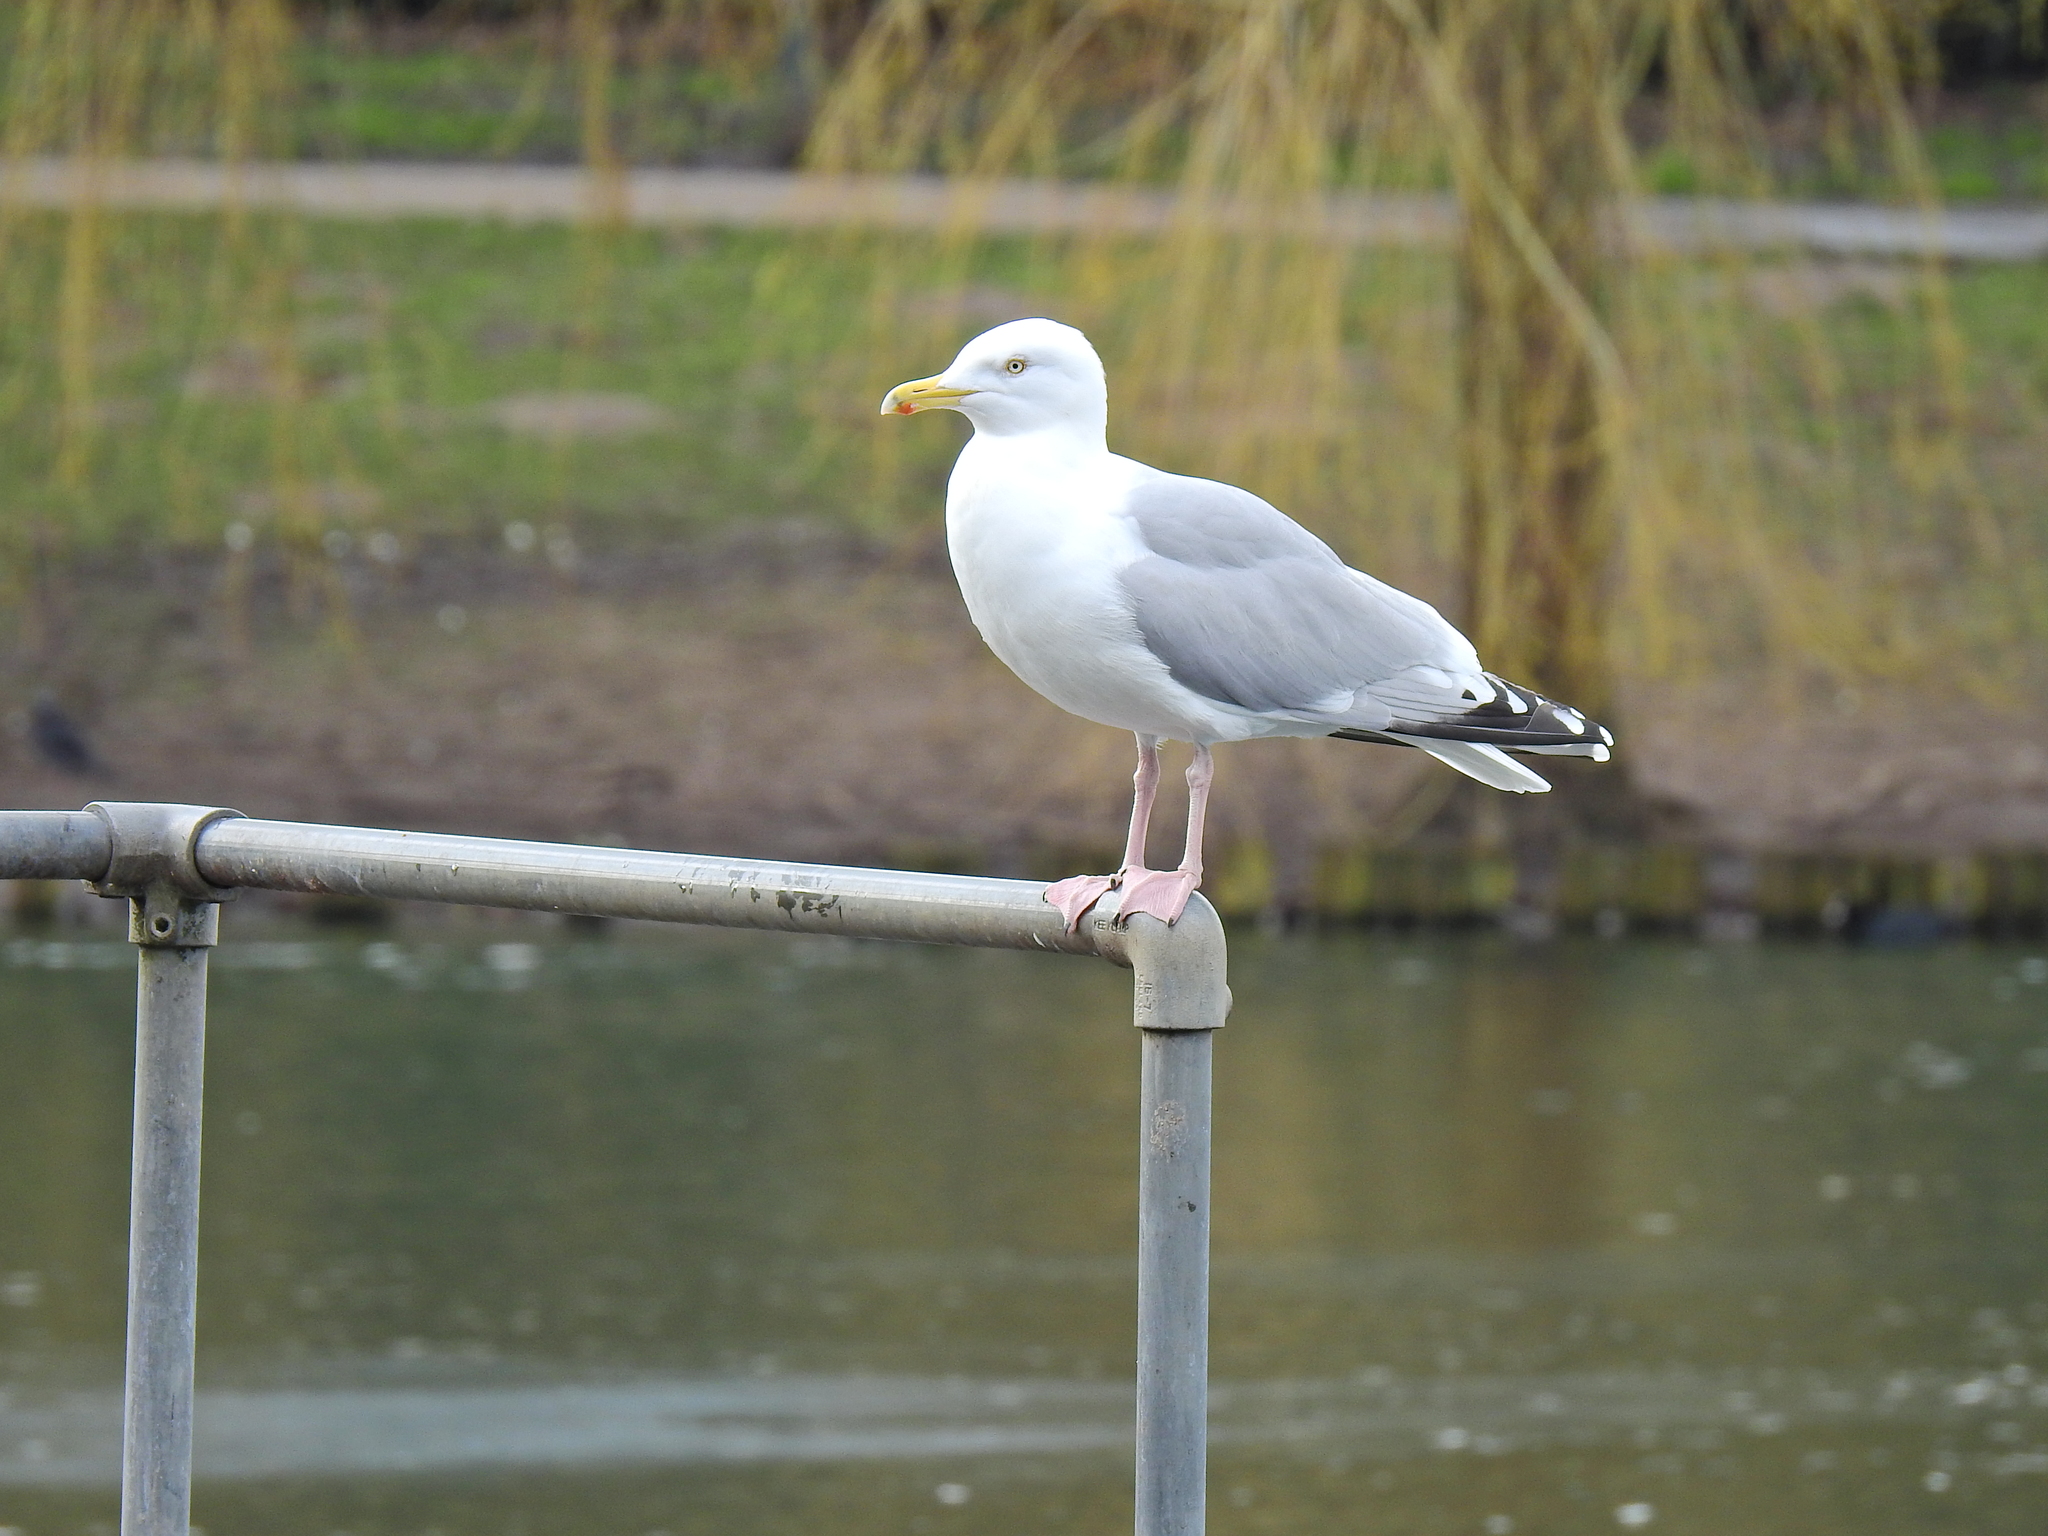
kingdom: Animalia
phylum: Chordata
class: Aves
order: Charadriiformes
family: Laridae
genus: Larus
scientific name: Larus argentatus
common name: Herring gull
